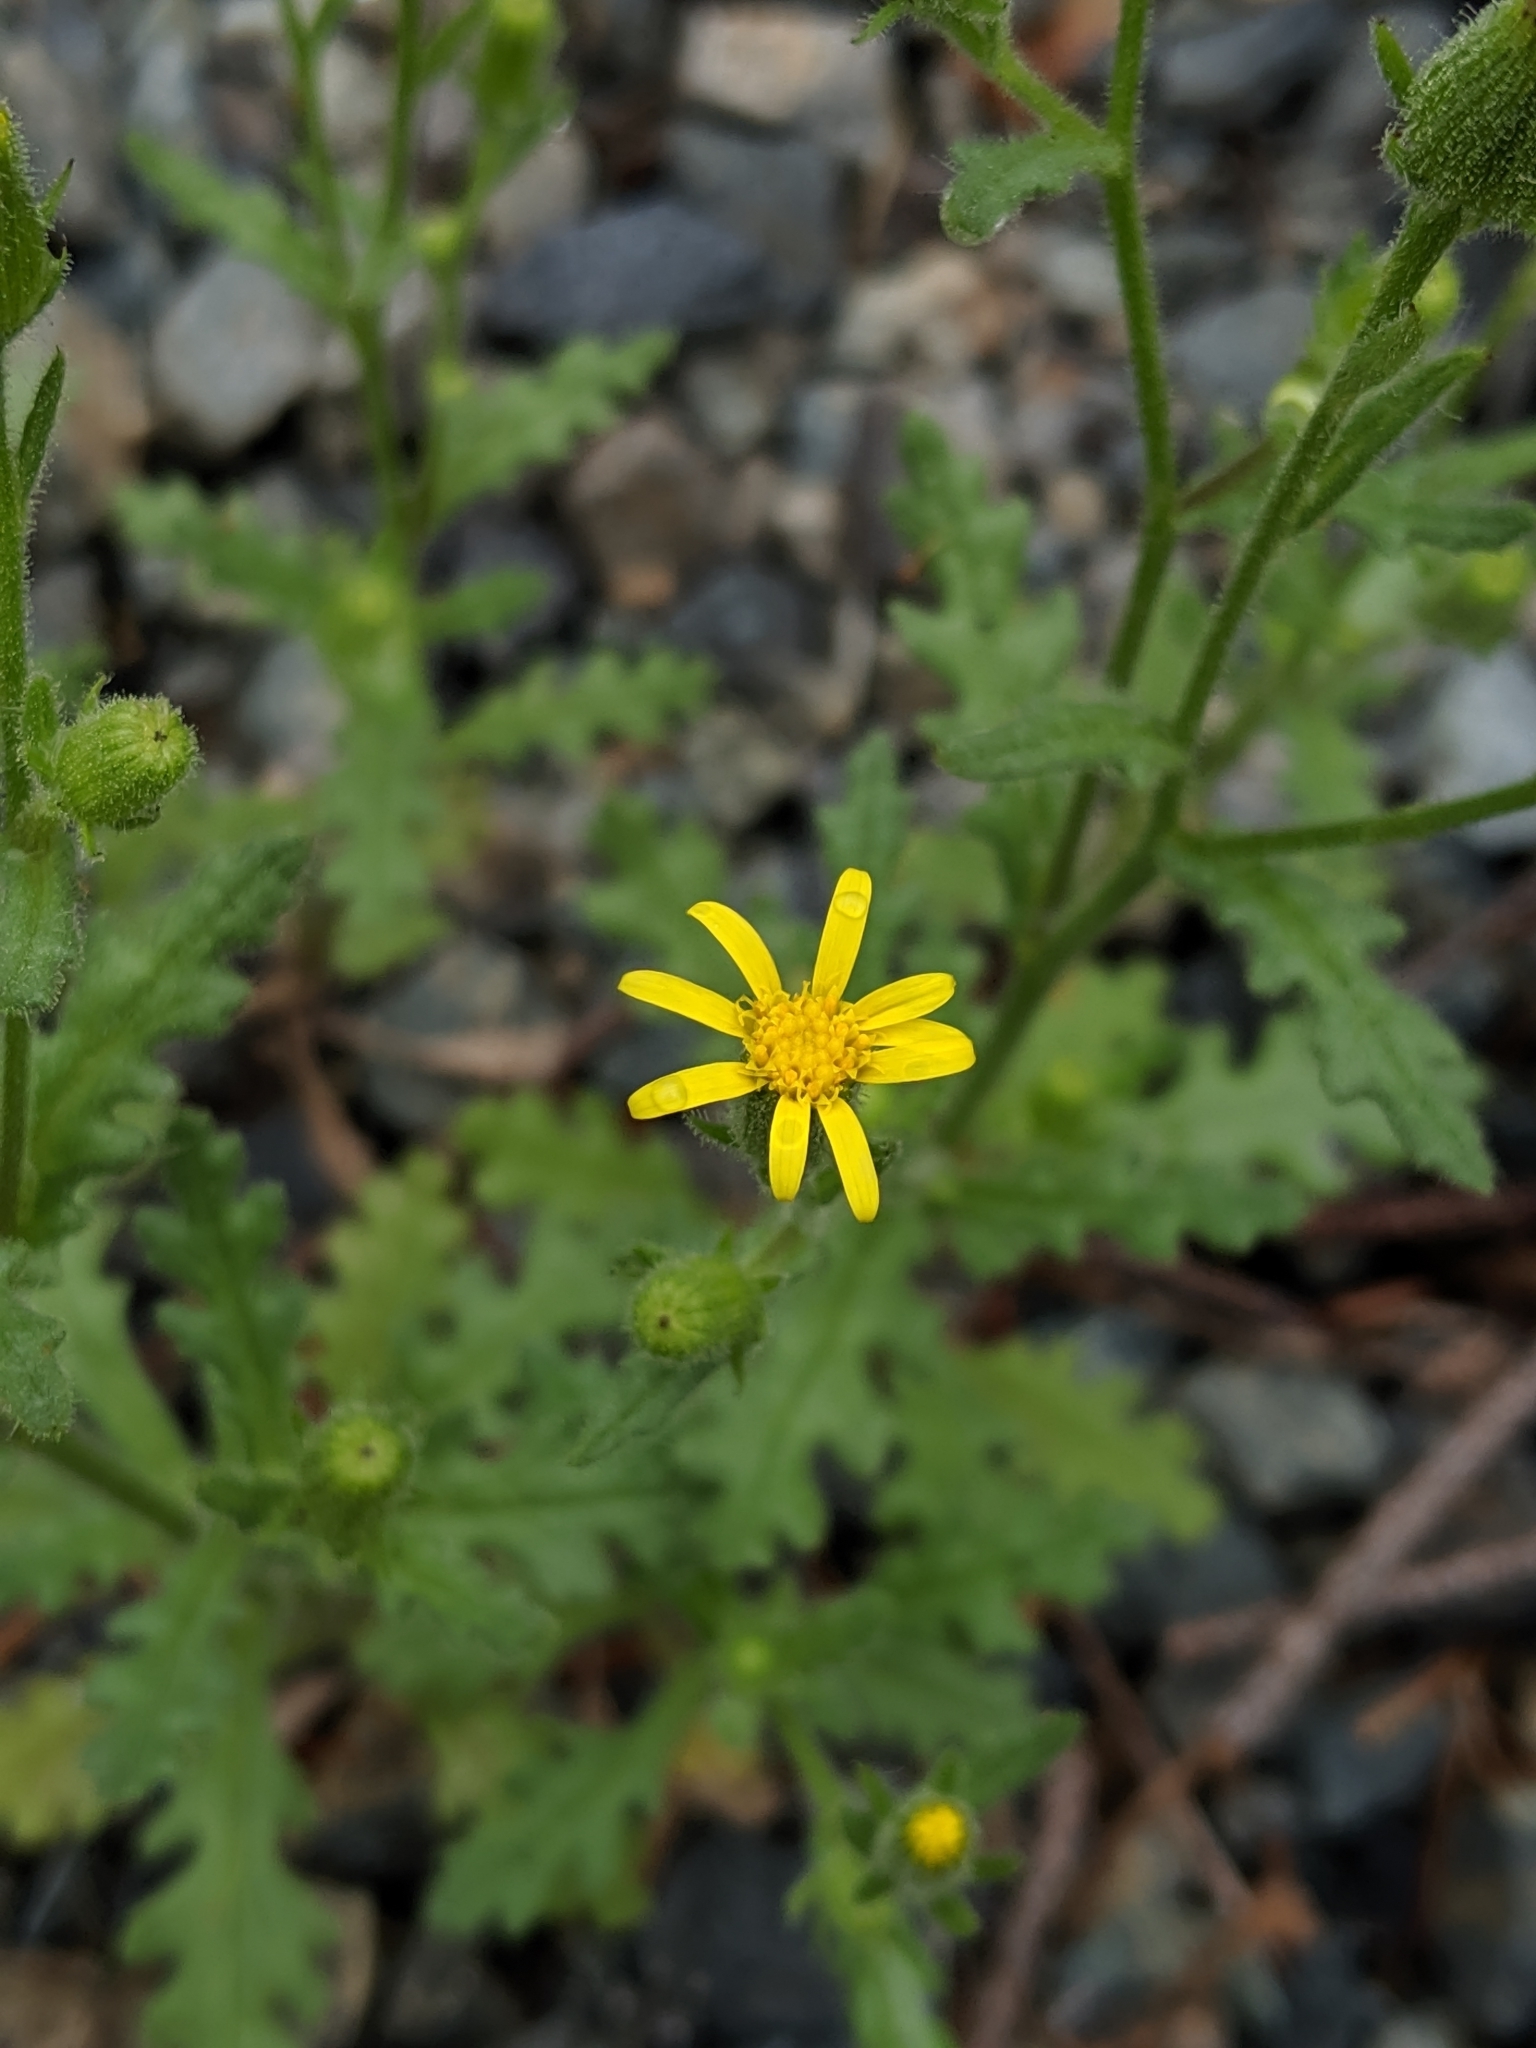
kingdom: Plantae
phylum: Tracheophyta
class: Magnoliopsida
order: Asterales
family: Asteraceae
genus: Senecio
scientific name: Senecio viscosus
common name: Sticky groundsel
